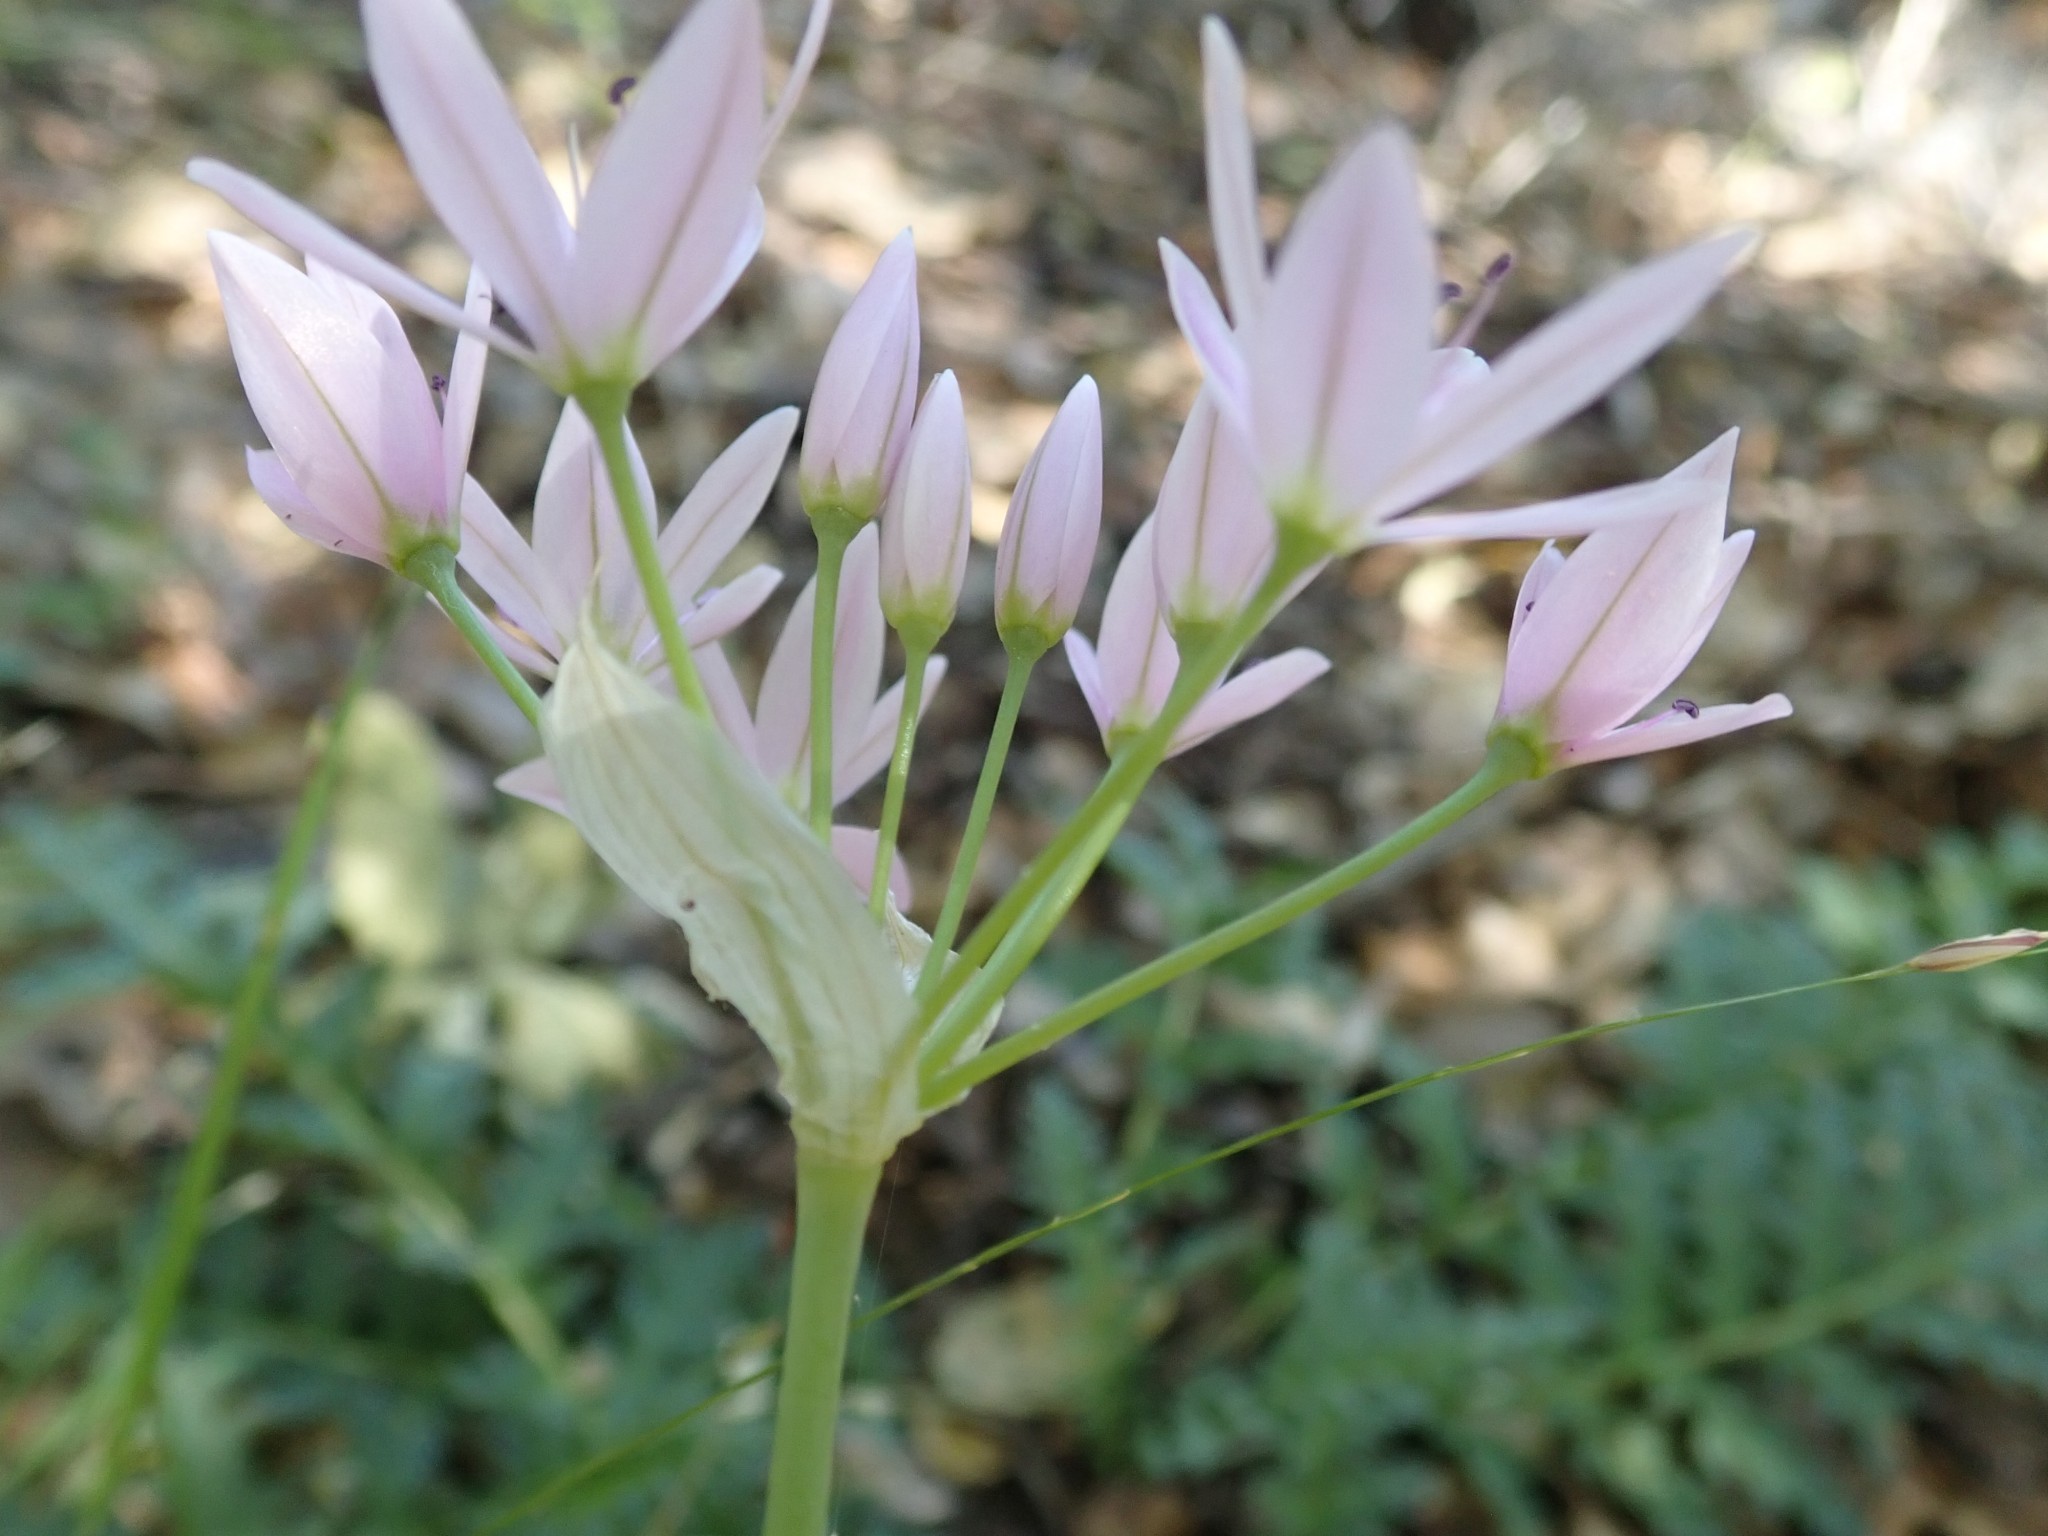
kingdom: Plantae
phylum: Tracheophyta
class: Liliopsida
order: Asparagales
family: Amaryllidaceae
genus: Allium
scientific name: Allium unifolium
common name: American garlic
